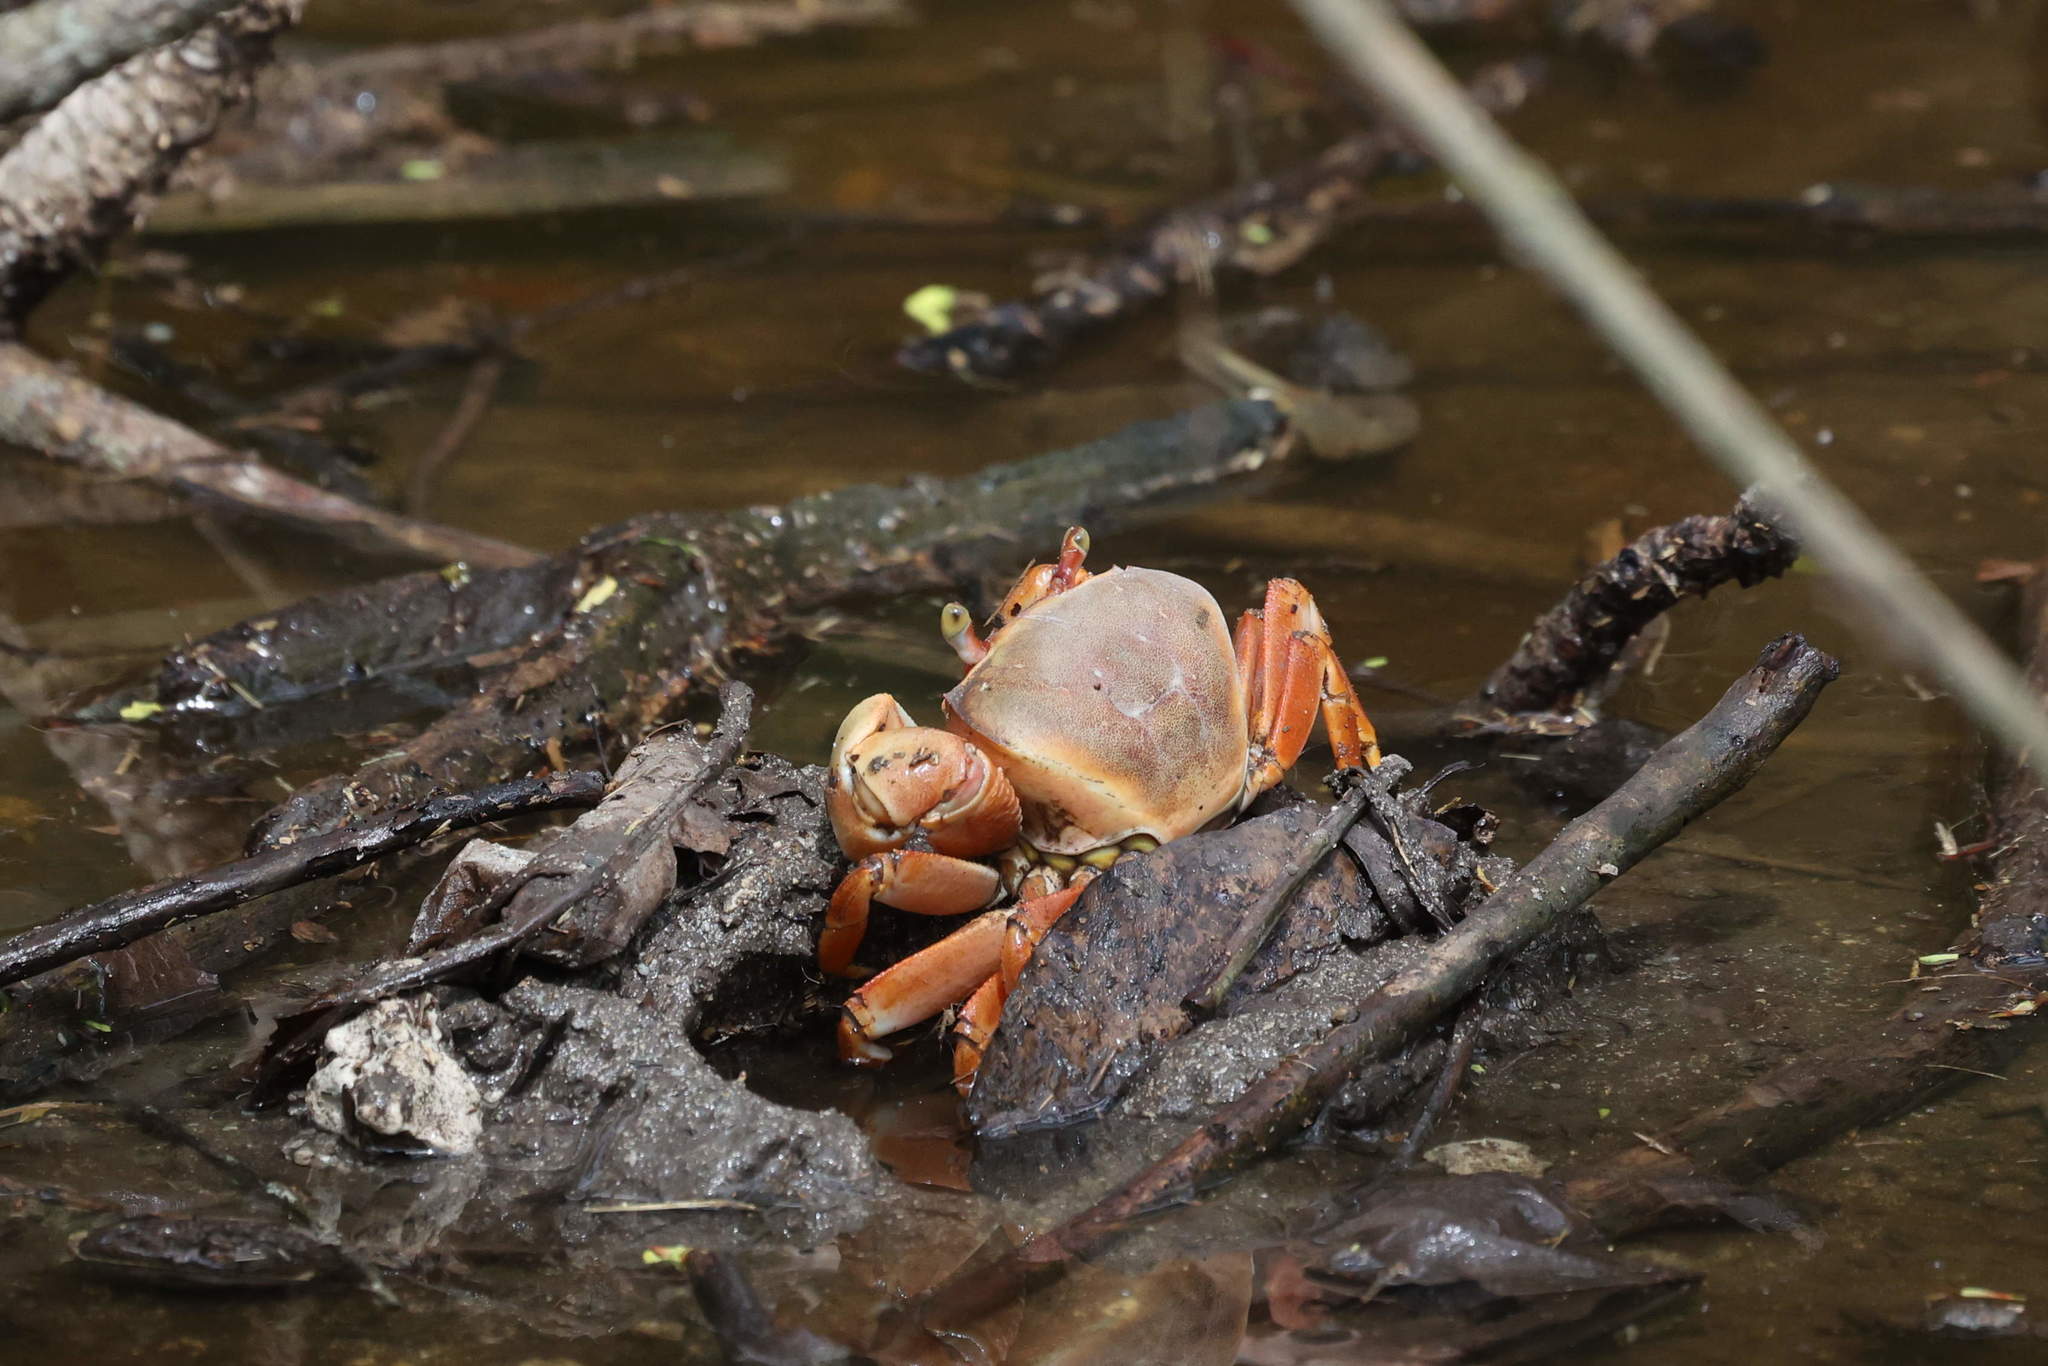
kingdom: Animalia
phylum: Arthropoda
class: Malacostraca
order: Decapoda
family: Gecarcinidae
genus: Cardisoma
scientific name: Cardisoma guanhumi
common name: Great land crab
